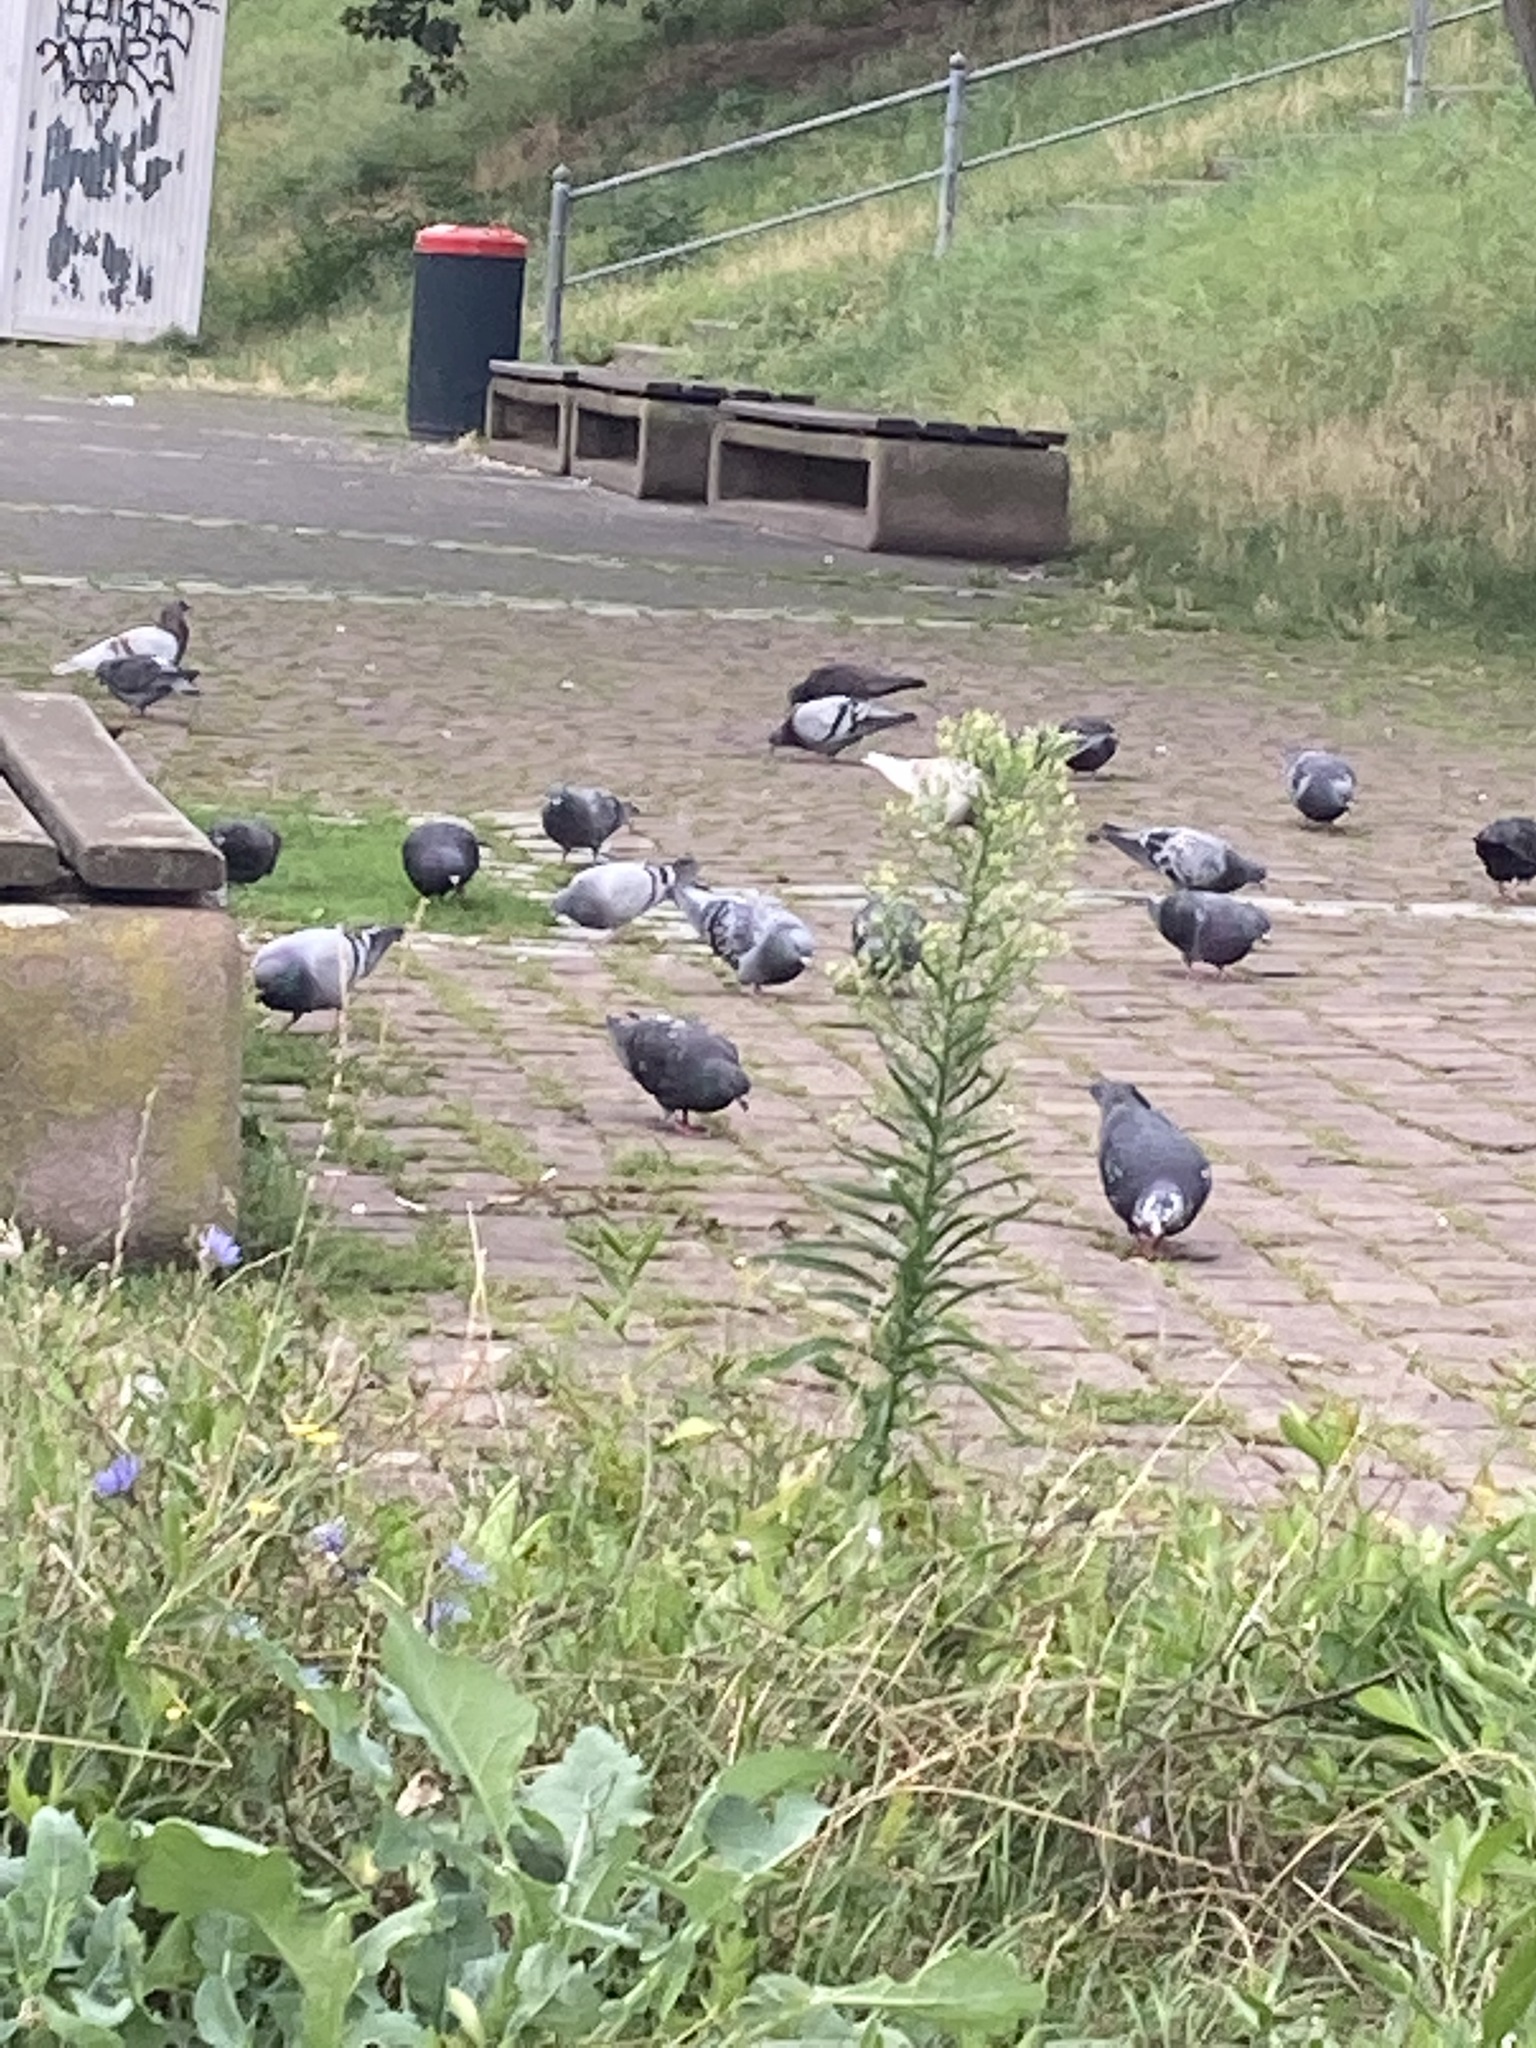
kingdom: Animalia
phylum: Chordata
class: Aves
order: Columbiformes
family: Columbidae
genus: Columba
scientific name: Columba livia
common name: Rock pigeon
